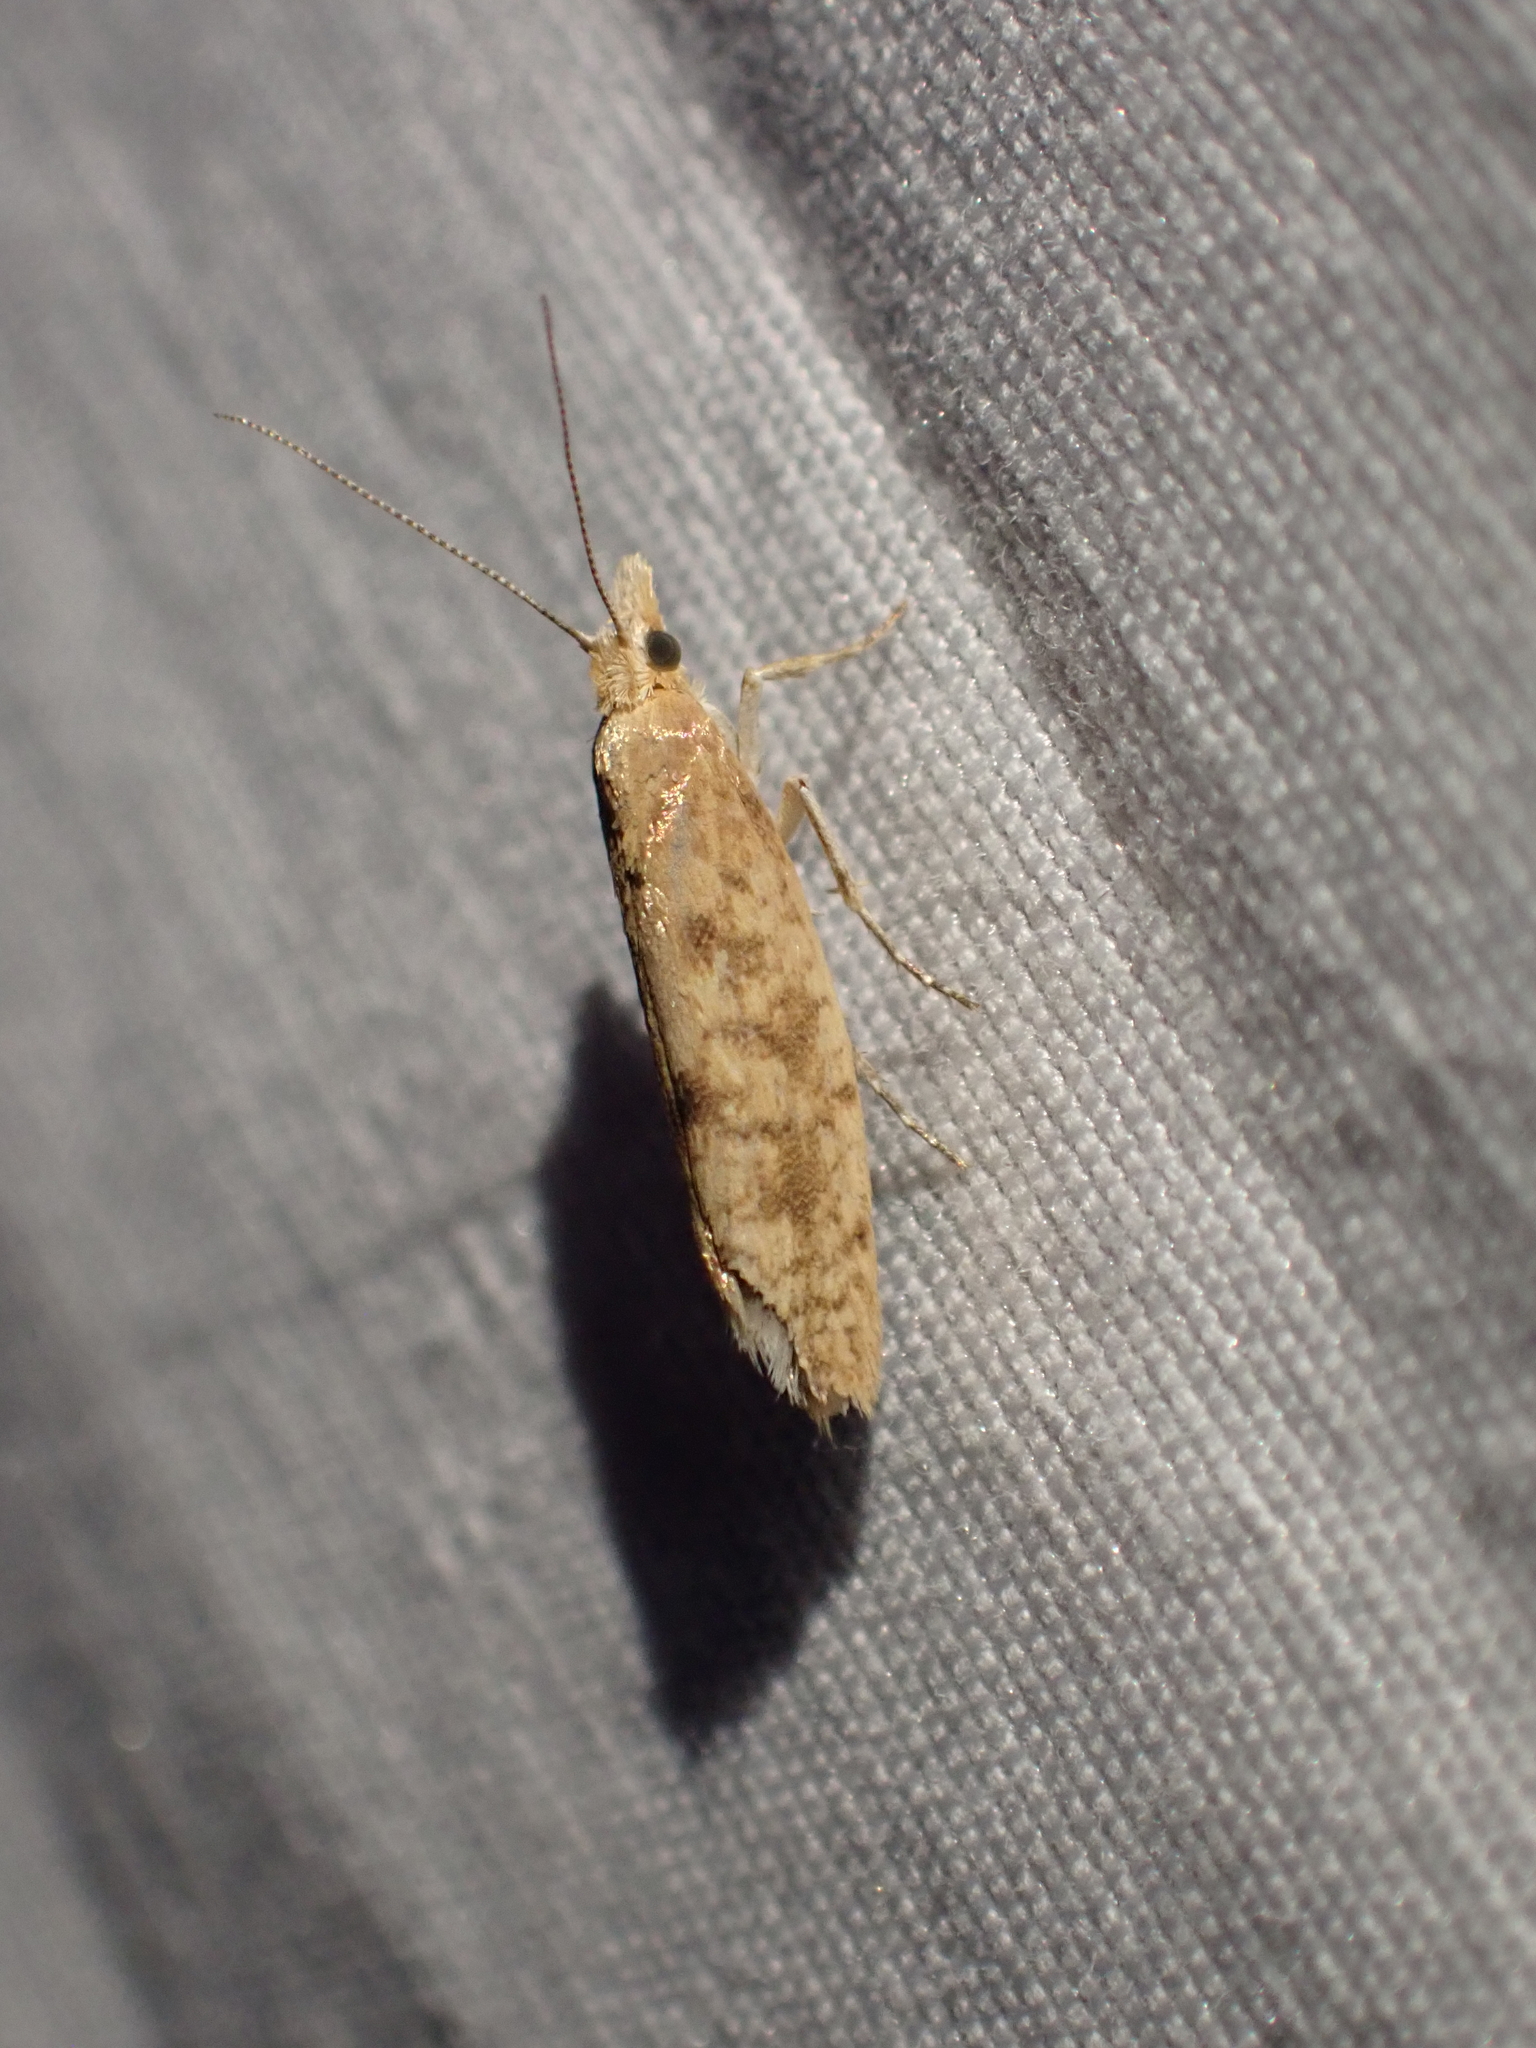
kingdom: Animalia
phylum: Arthropoda
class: Insecta
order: Lepidoptera
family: Ypsolophidae
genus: Ypsolopha
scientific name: Ypsolopha cervella
